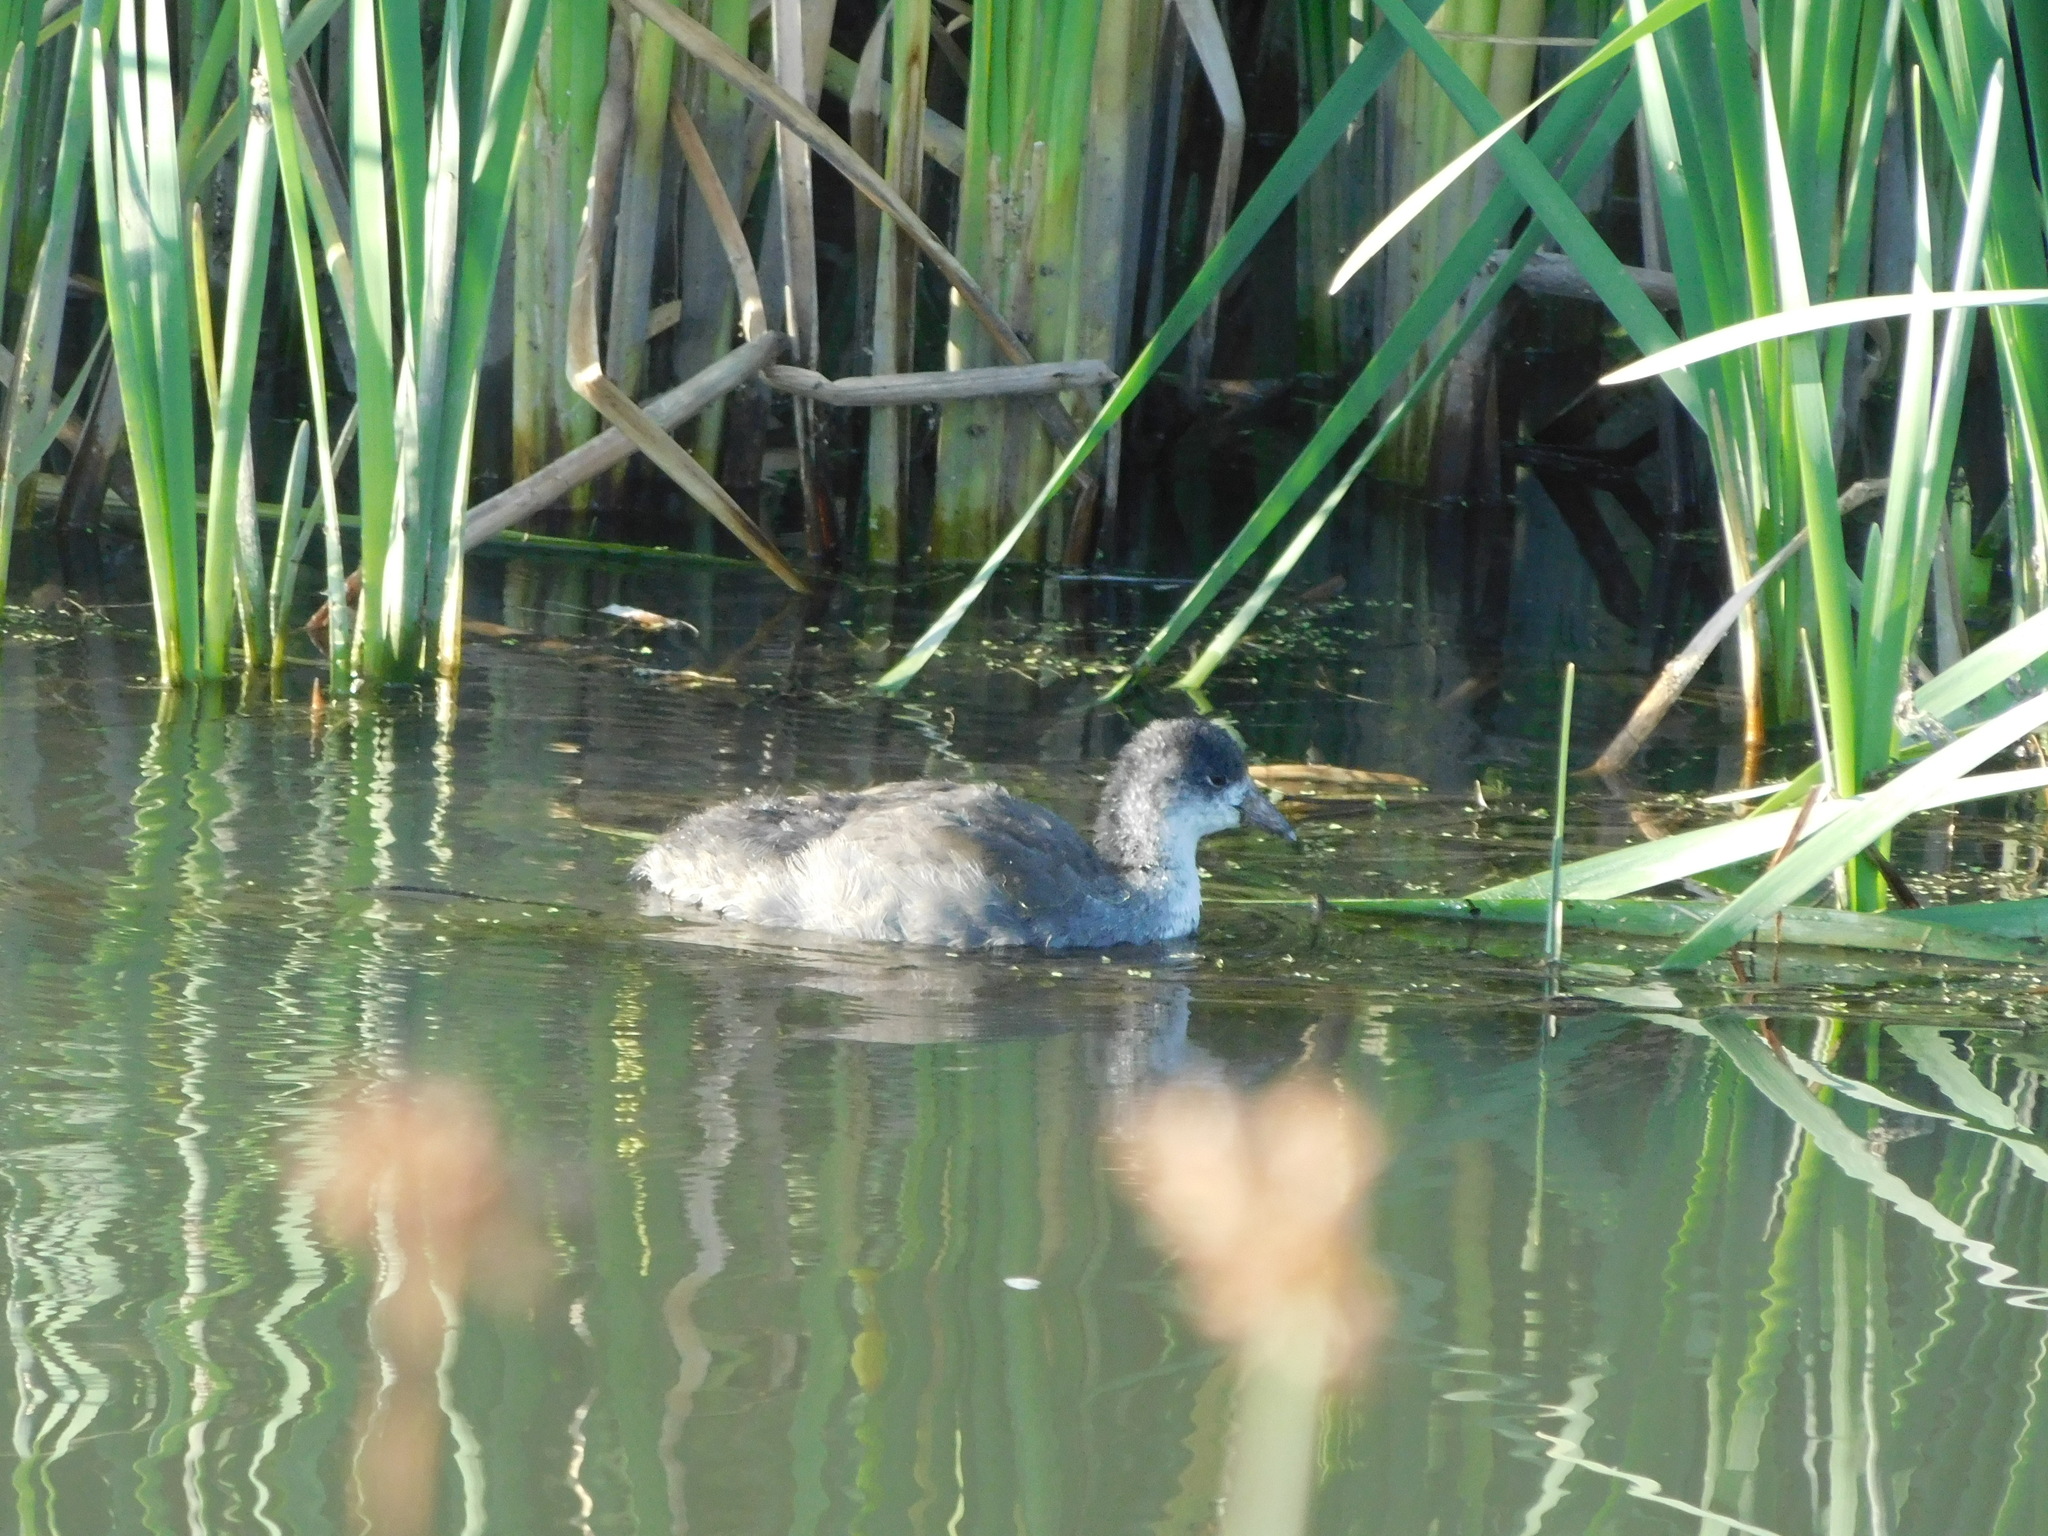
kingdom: Animalia
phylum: Chordata
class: Aves
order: Gruiformes
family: Rallidae
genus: Fulica
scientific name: Fulica americana
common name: American coot
